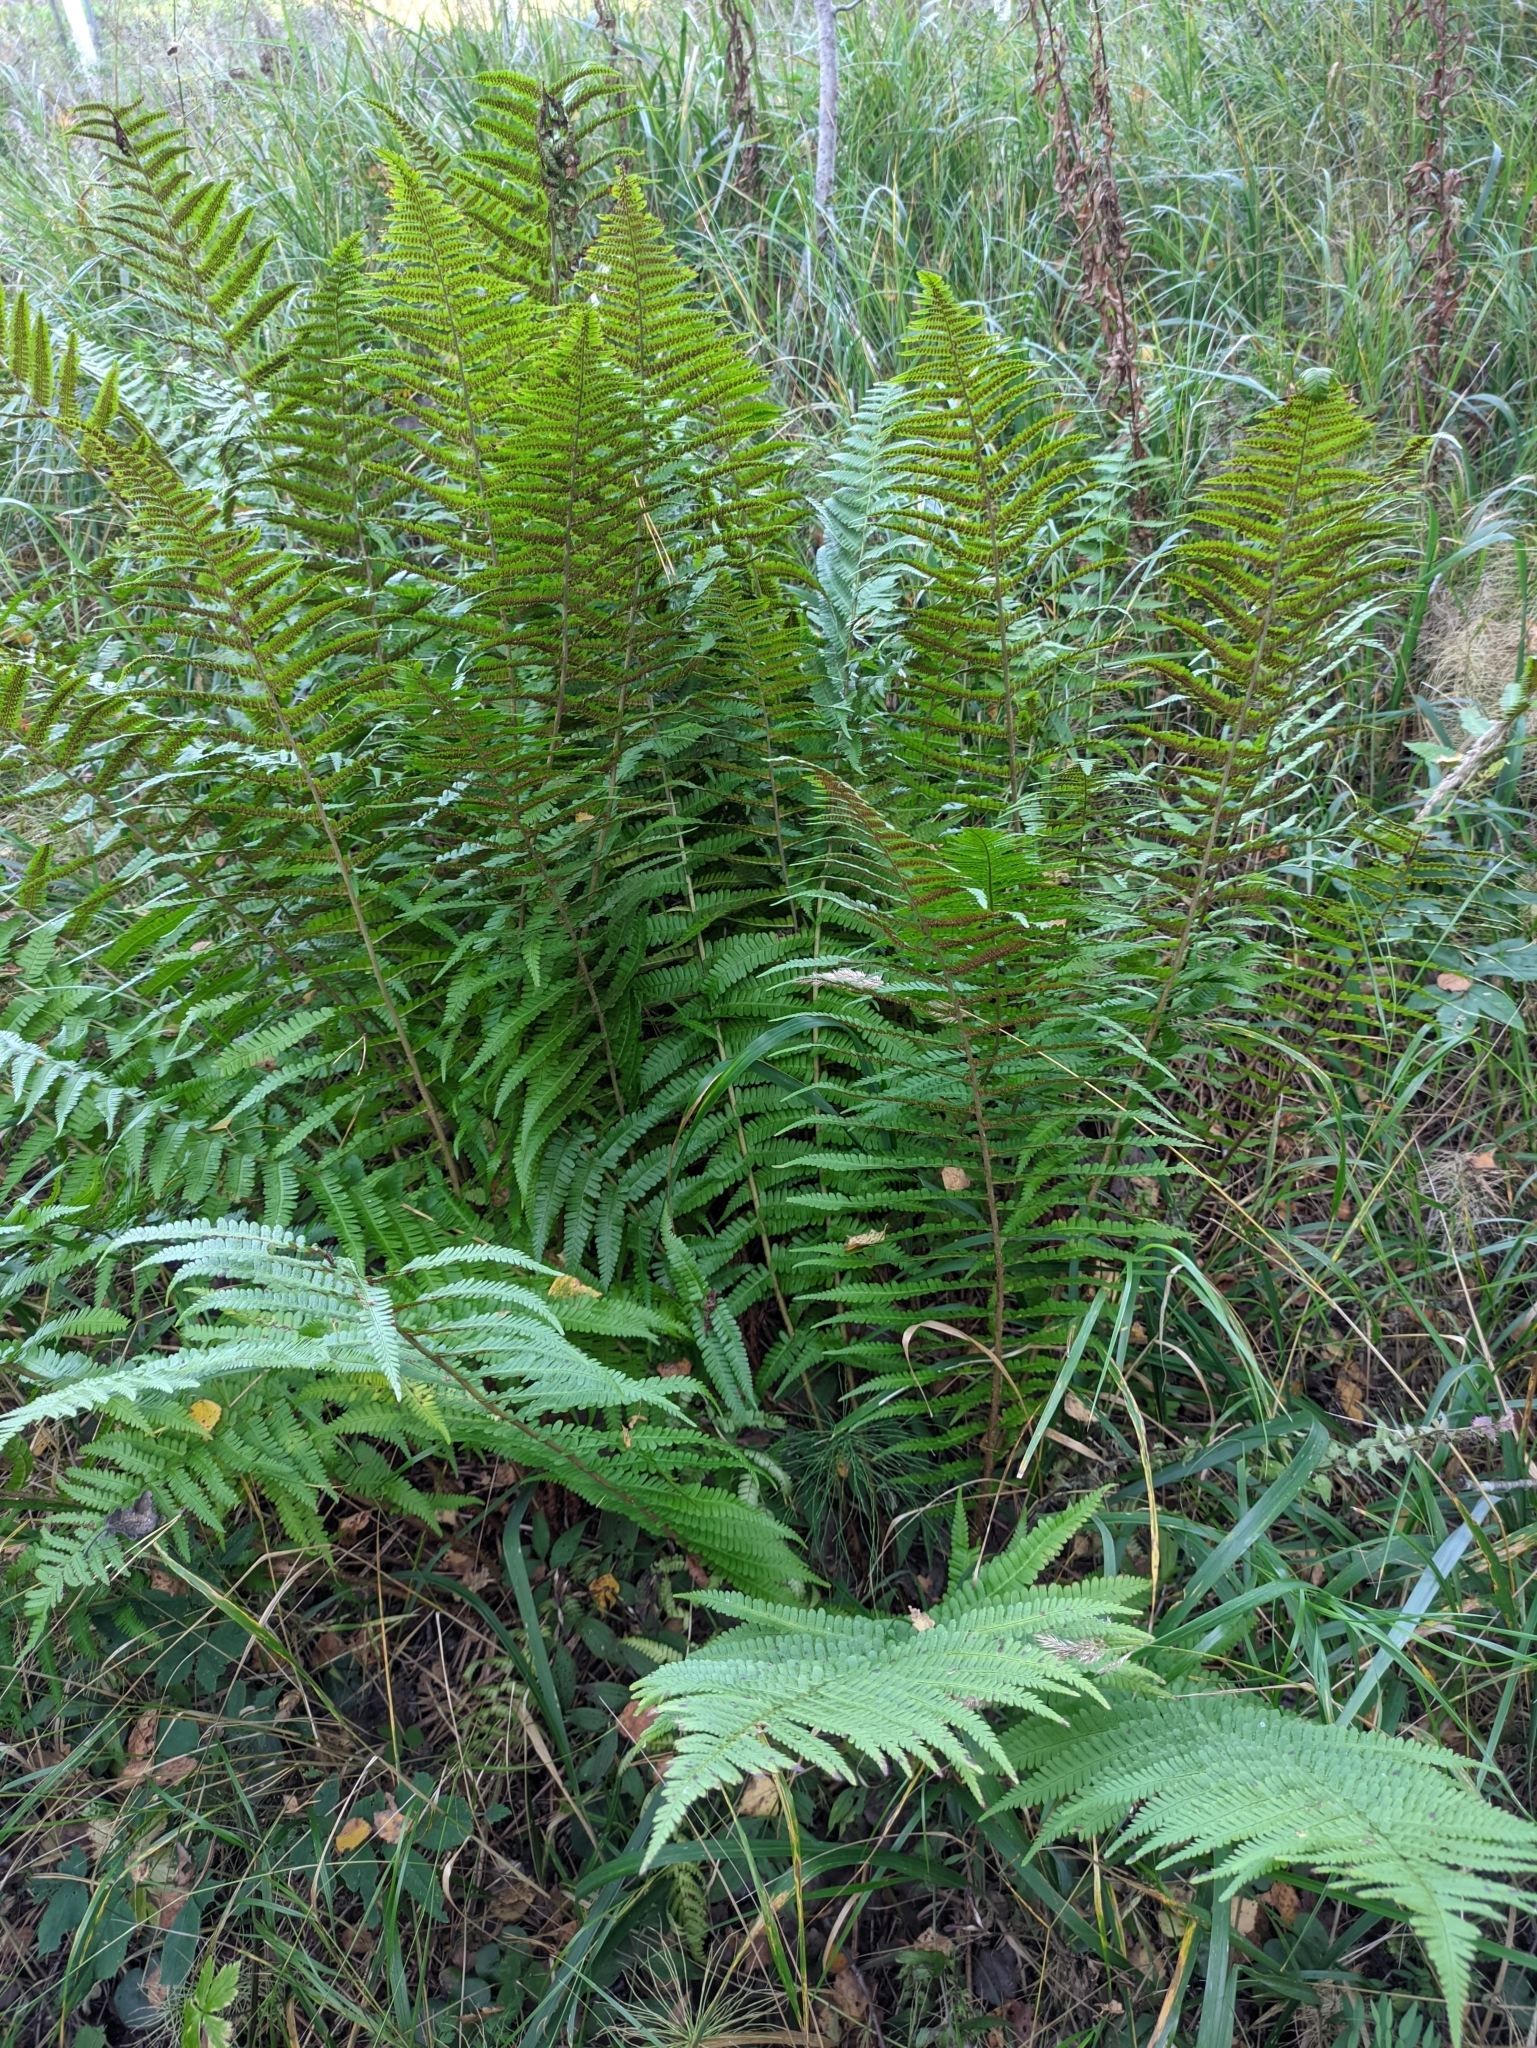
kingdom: Plantae
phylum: Tracheophyta
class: Polypodiopsida
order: Polypodiales
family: Dryopteridaceae
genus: Dryopteris
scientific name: Dryopteris filix-mas
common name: Male fern
